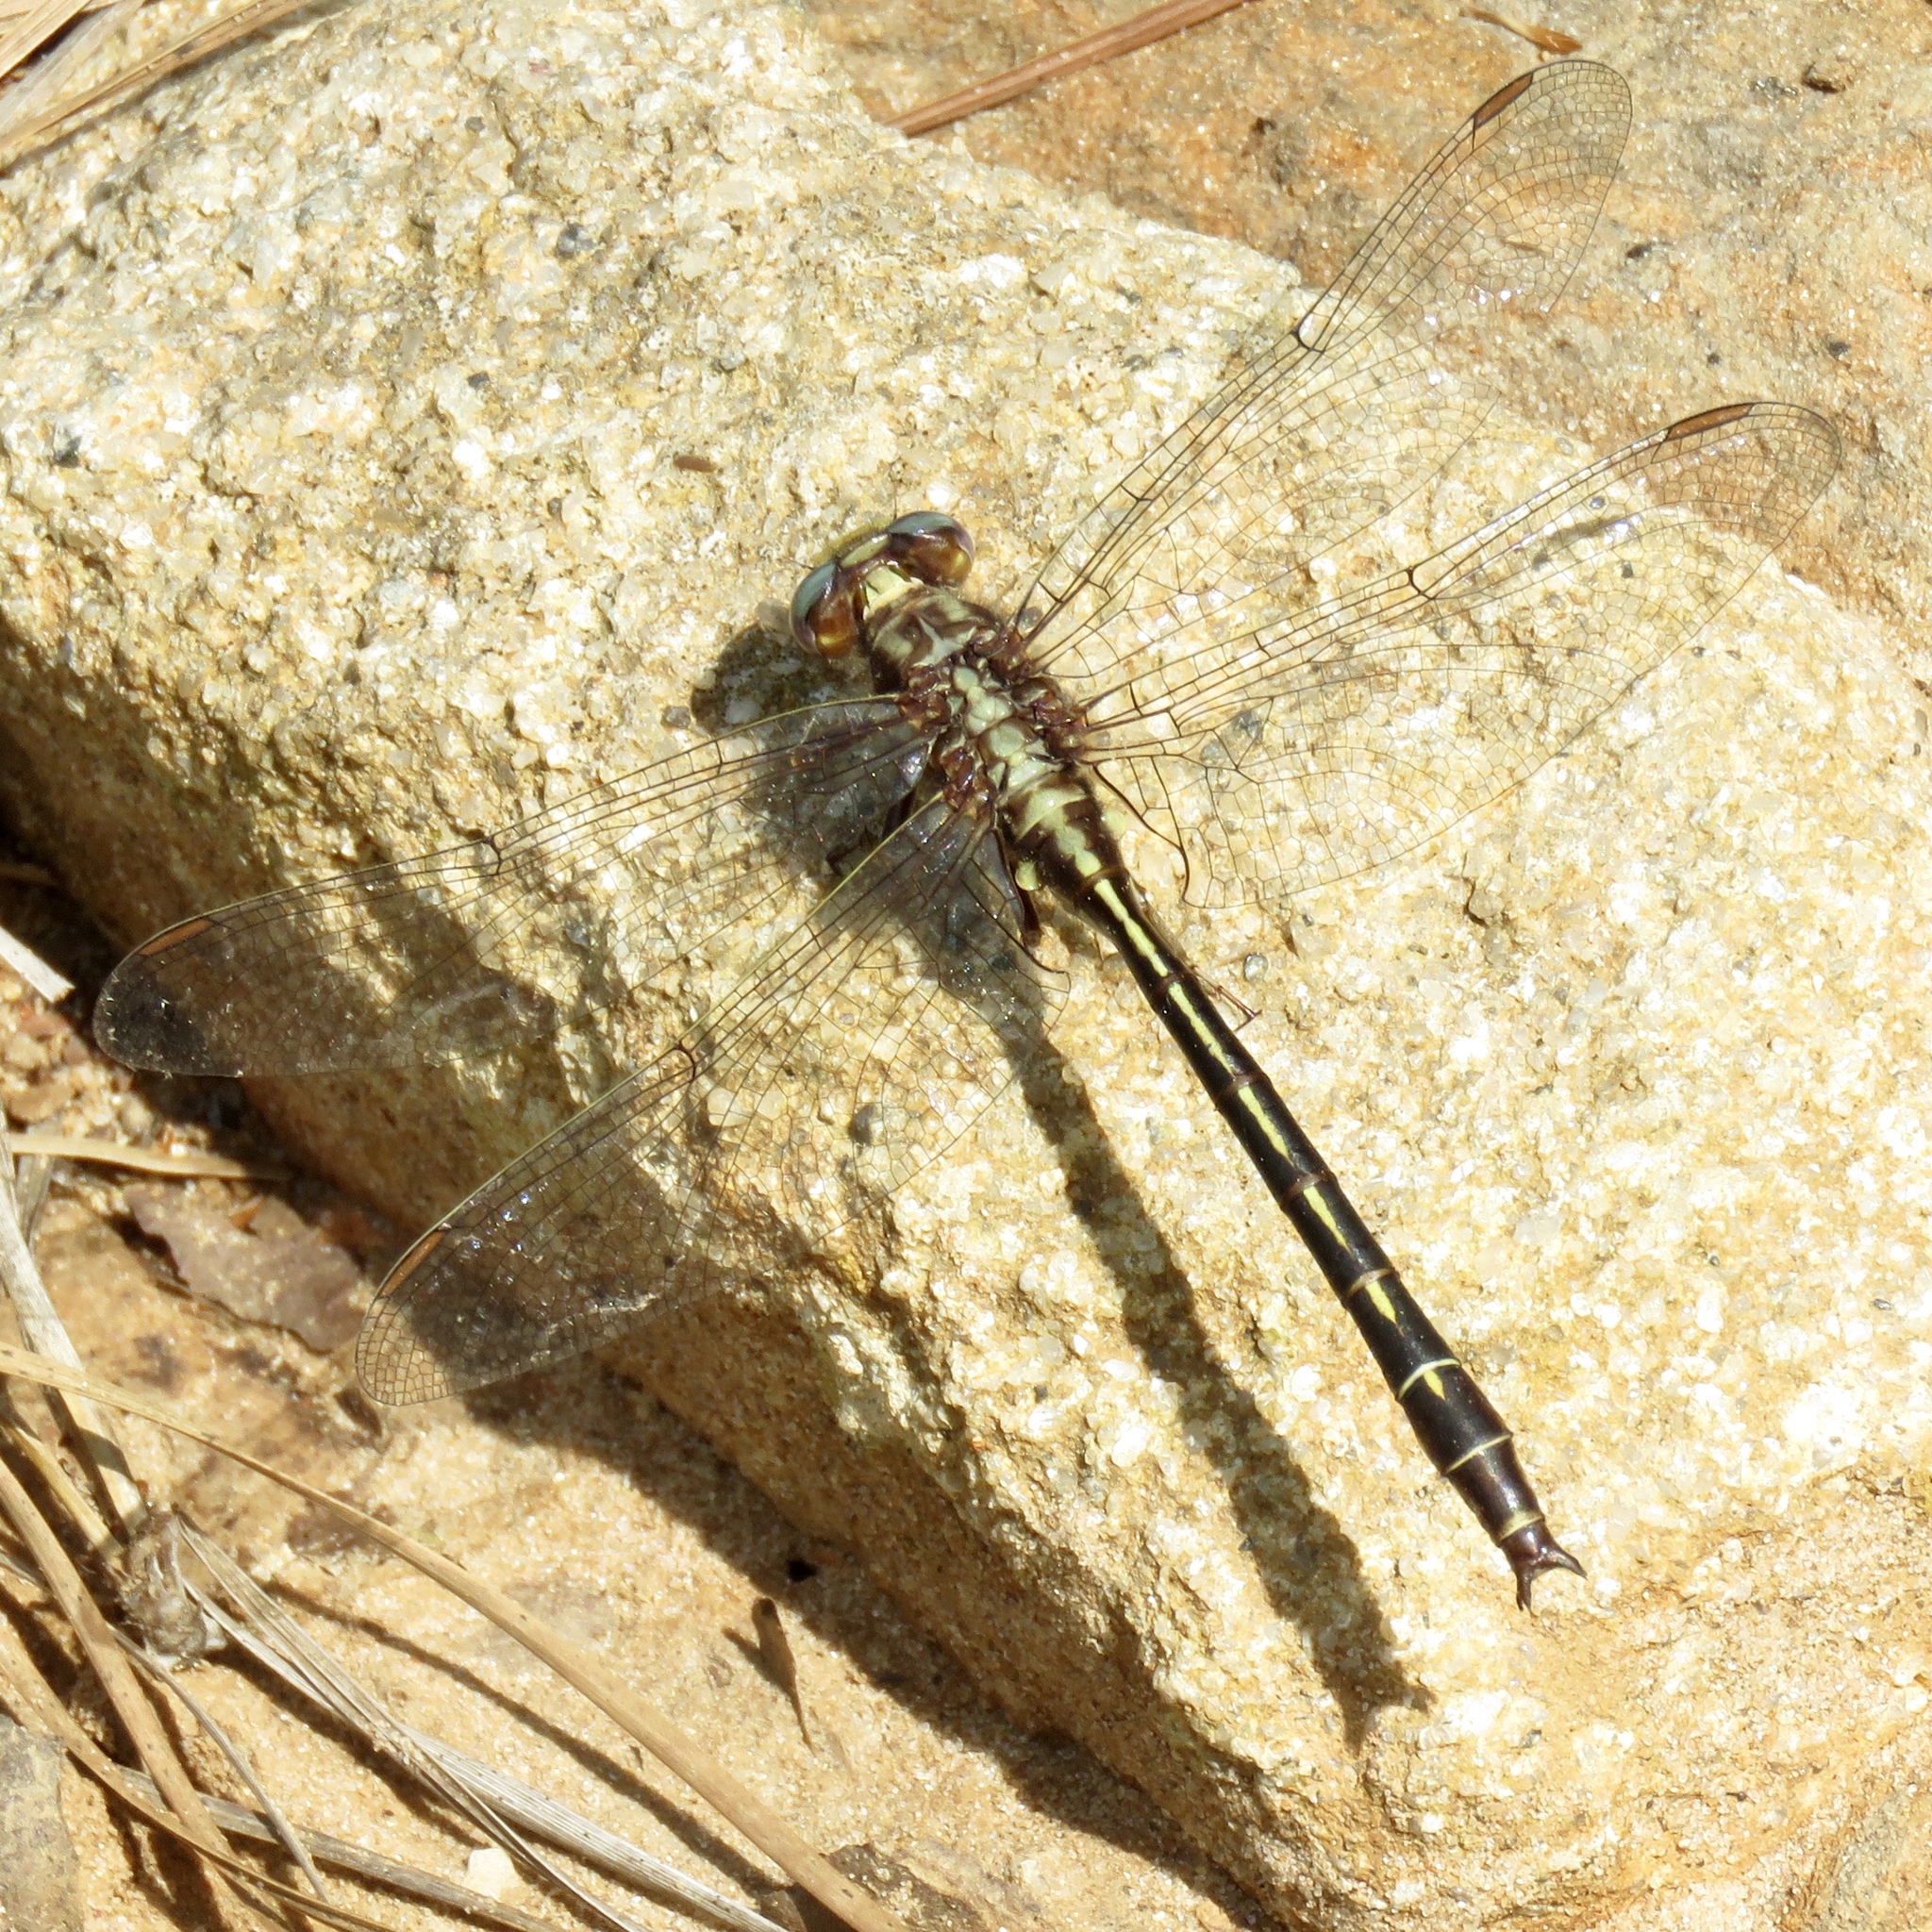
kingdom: Animalia
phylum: Arthropoda
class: Insecta
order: Odonata
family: Gomphidae
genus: Phanogomphus
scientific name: Phanogomphus lividus
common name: Ashy clubtail
